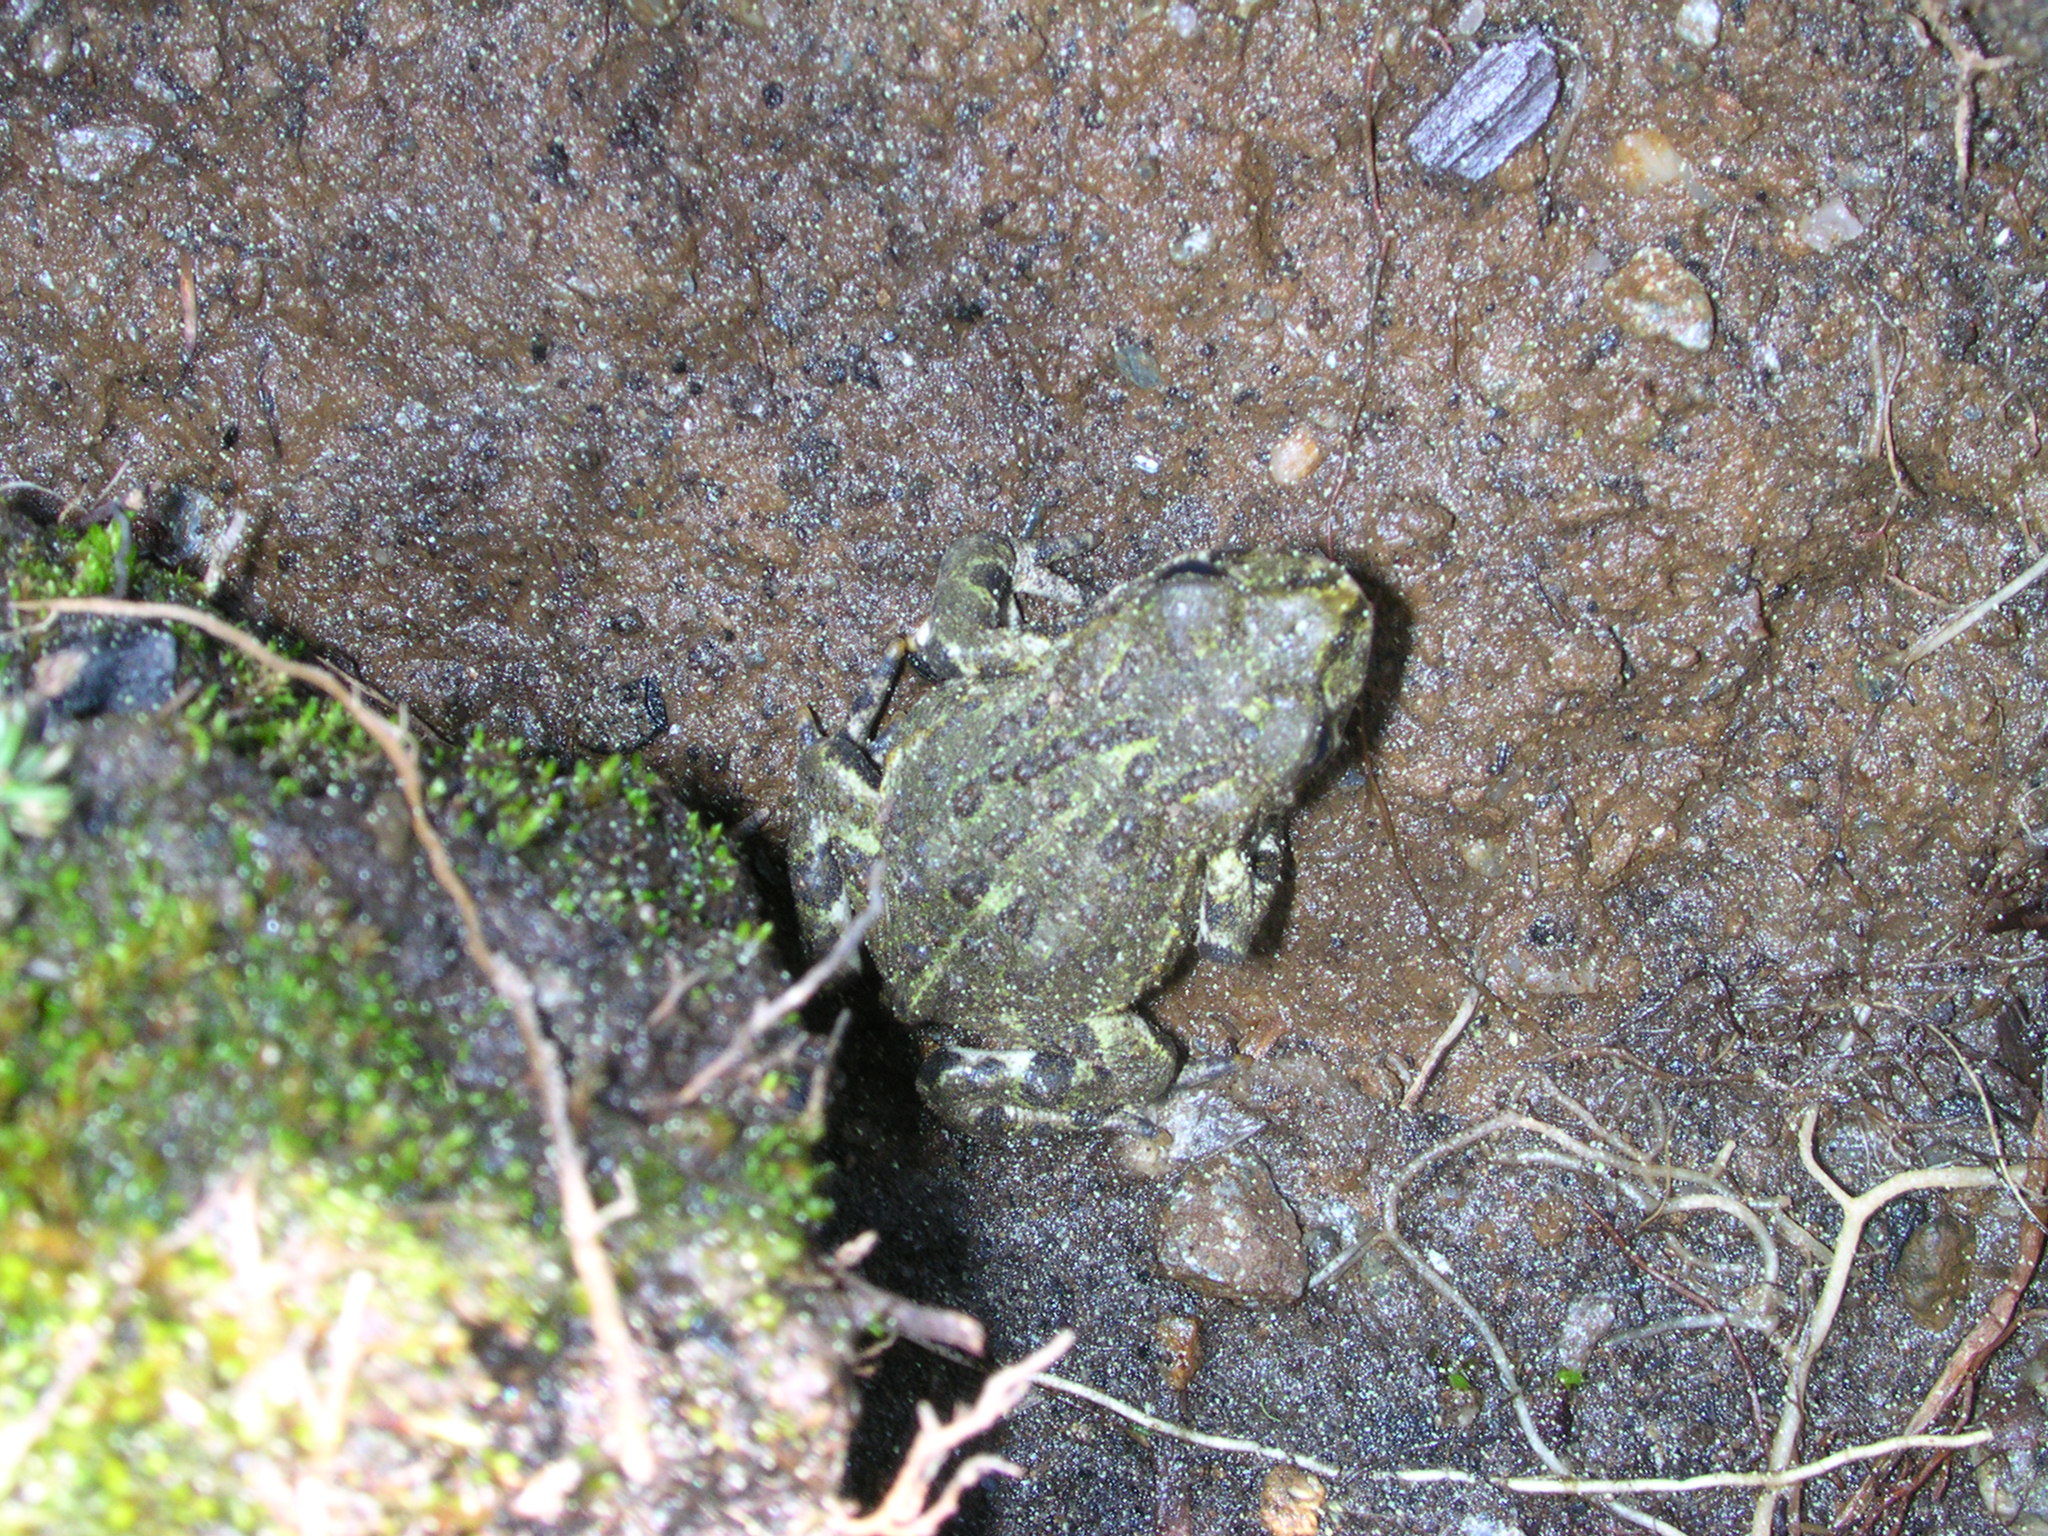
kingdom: Animalia
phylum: Chordata
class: Amphibia
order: Anura
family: Bufonidae
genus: Anaxyrus
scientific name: Anaxyrus boreas
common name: Western toad
